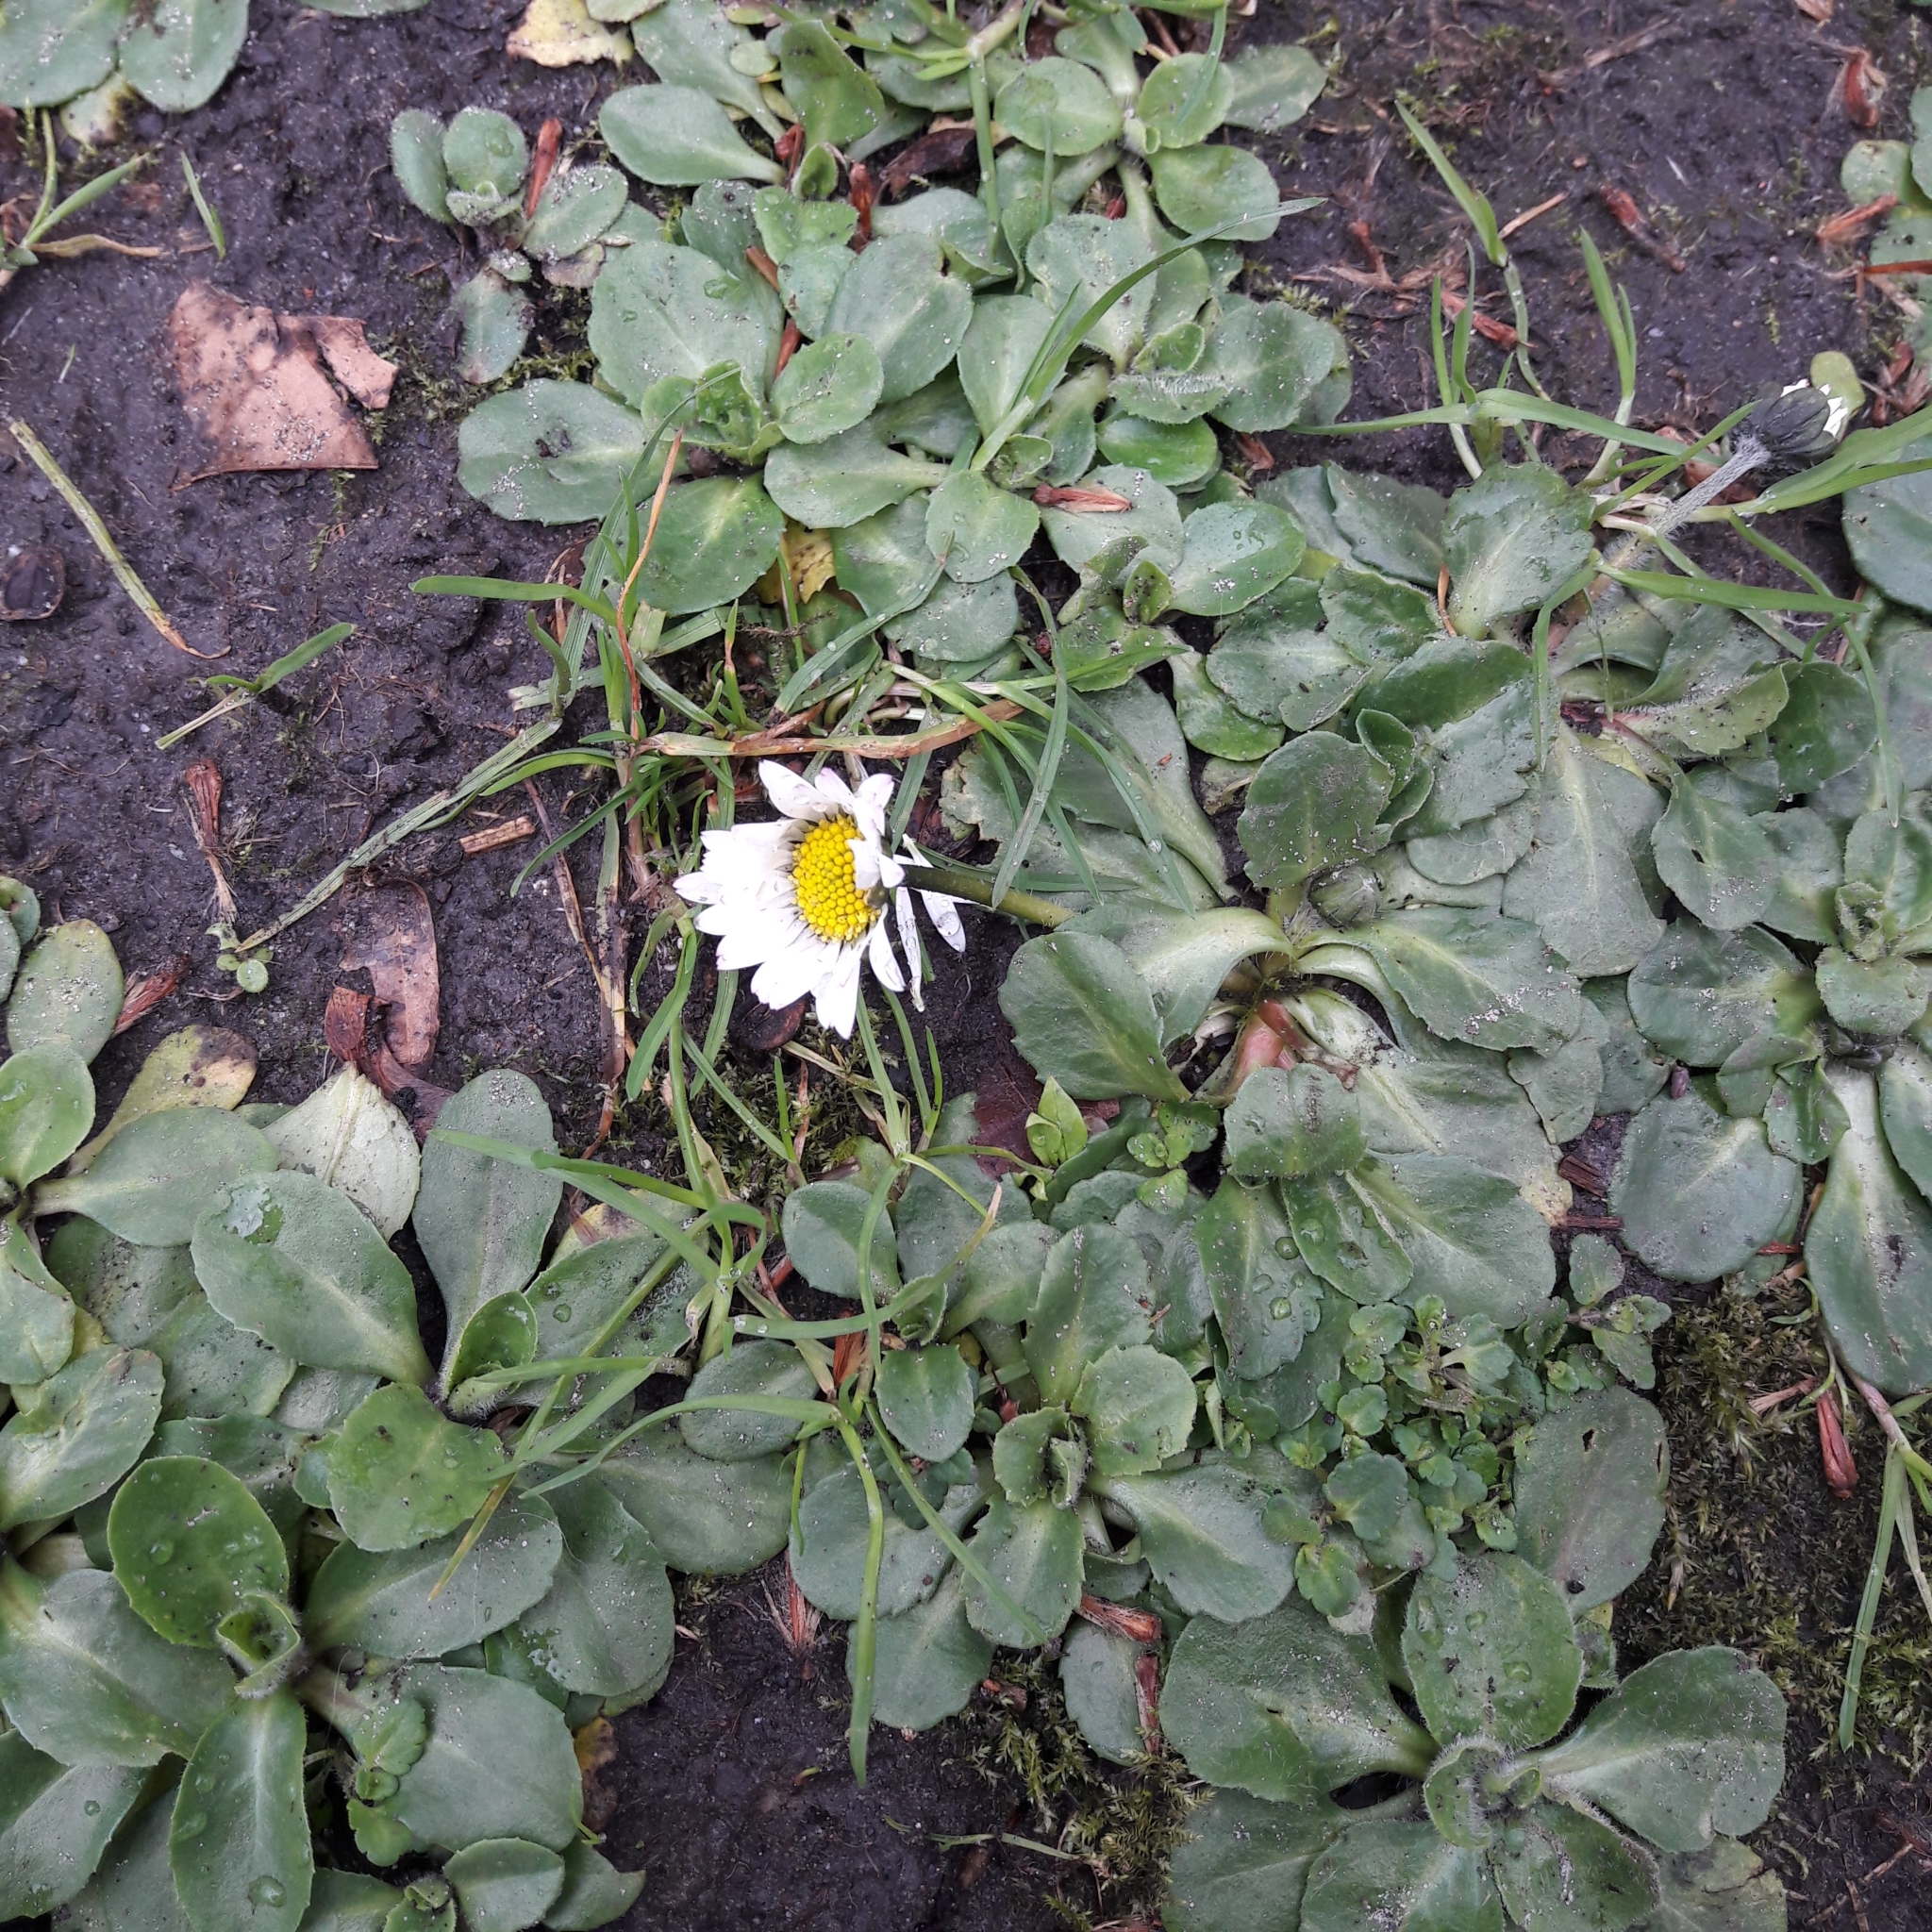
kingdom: Plantae
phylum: Tracheophyta
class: Magnoliopsida
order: Asterales
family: Asteraceae
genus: Bellis
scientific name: Bellis perennis
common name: Lawndaisy
